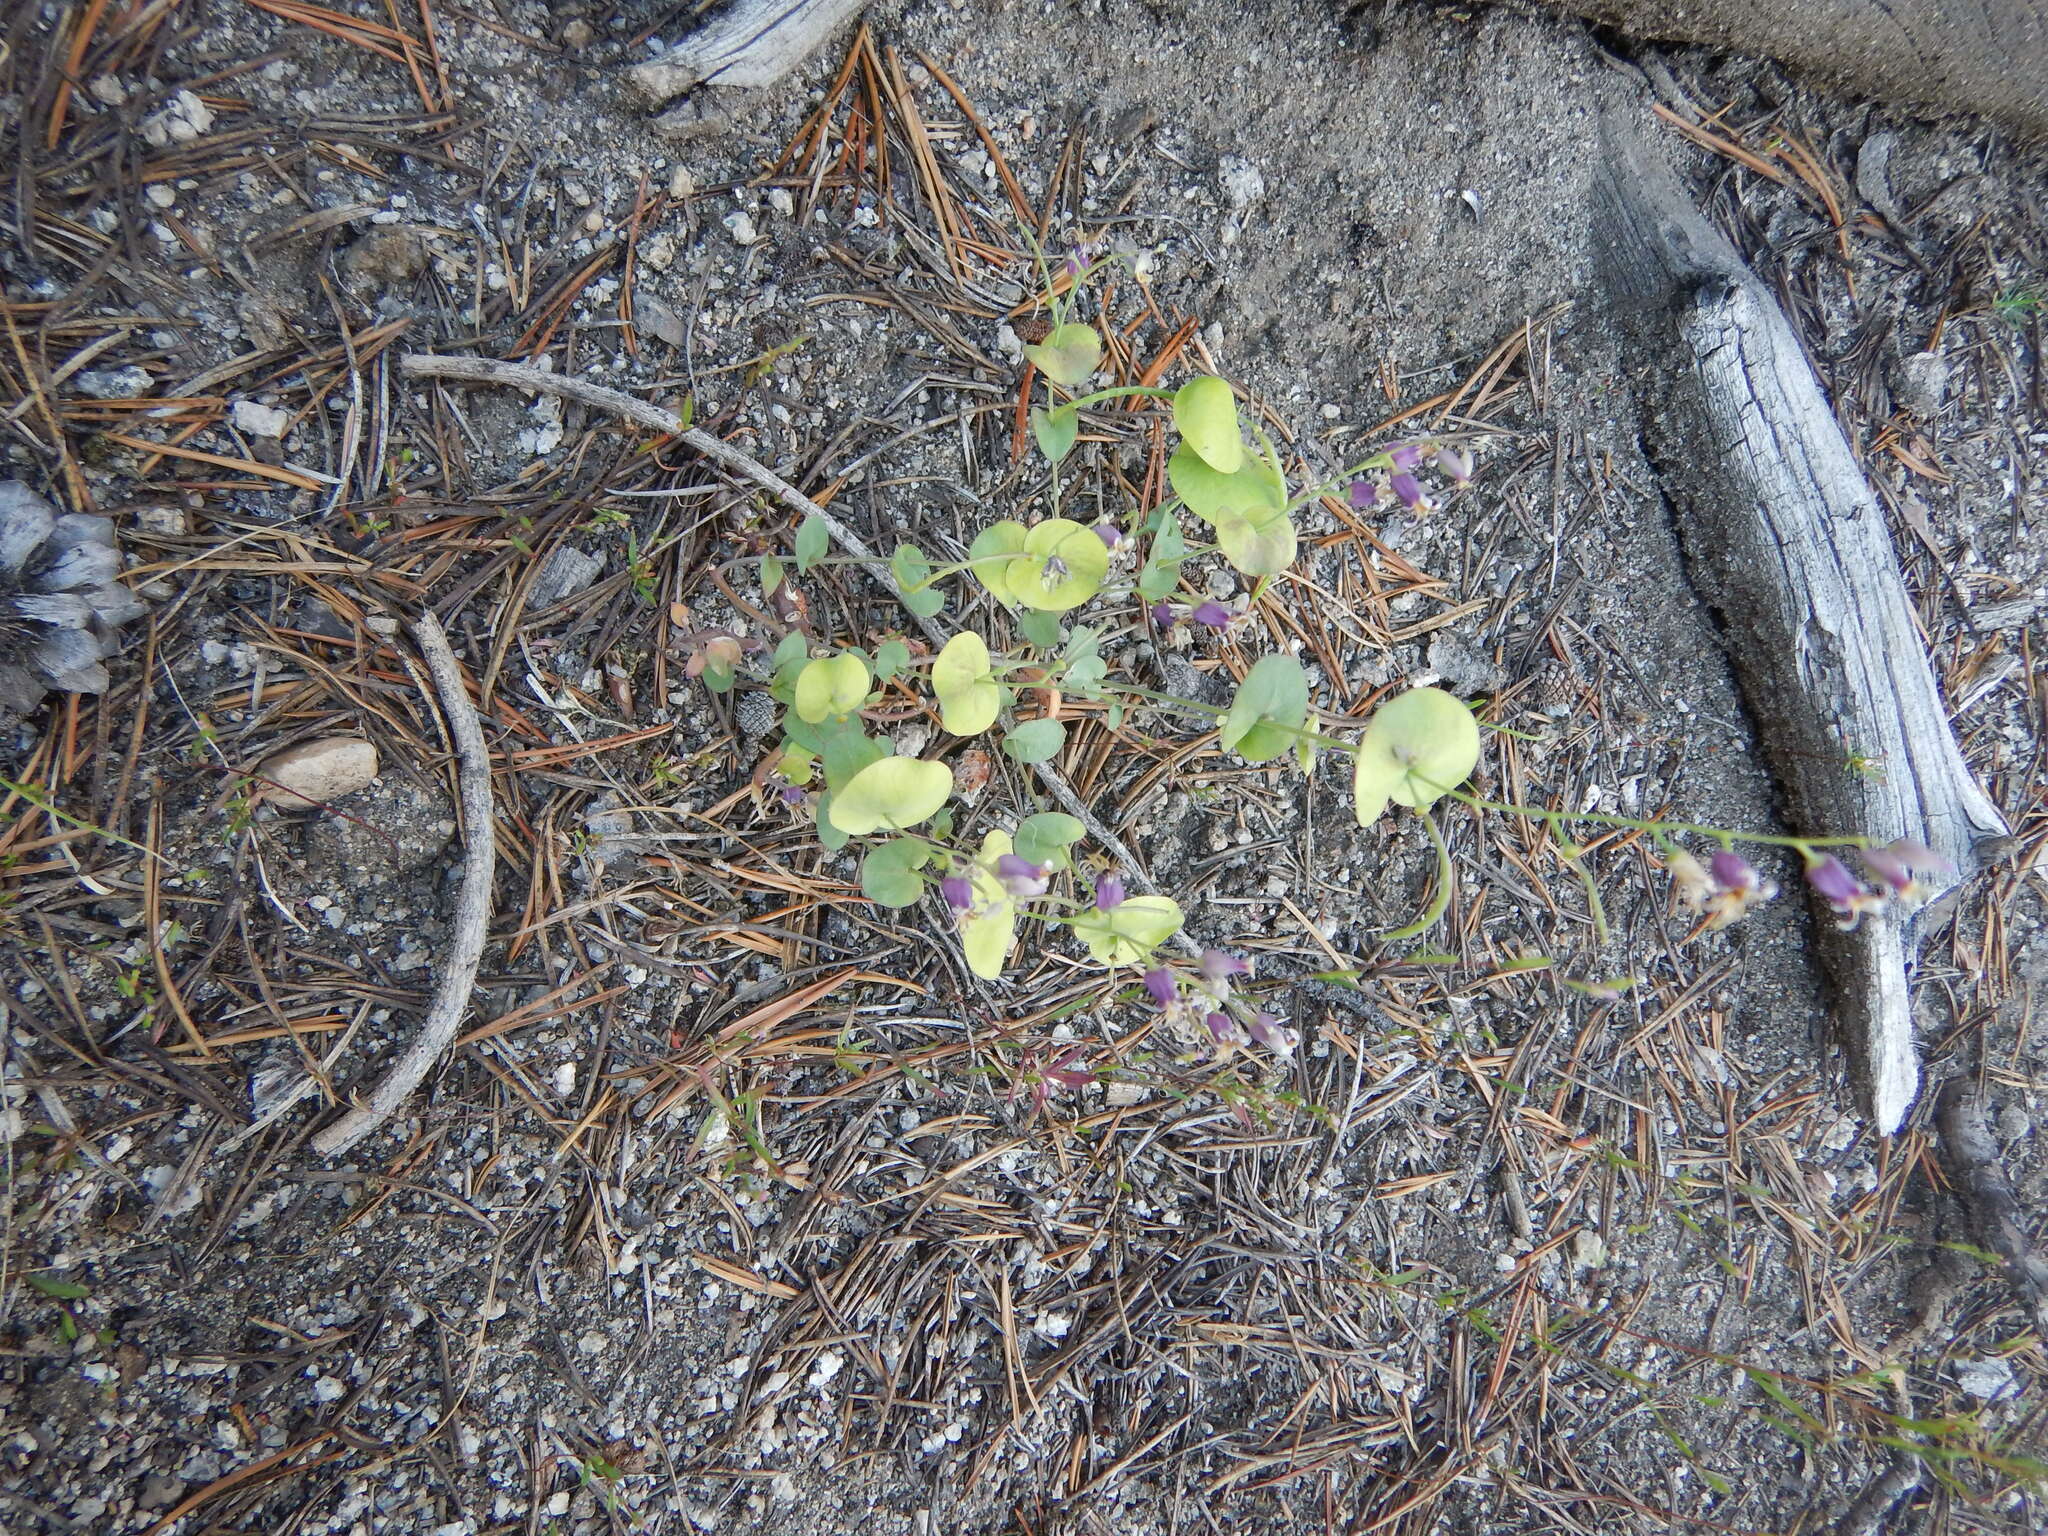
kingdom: Plantae
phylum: Tracheophyta
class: Magnoliopsida
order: Brassicales
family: Brassicaceae
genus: Streptanthus
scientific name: Streptanthus tortuosus
